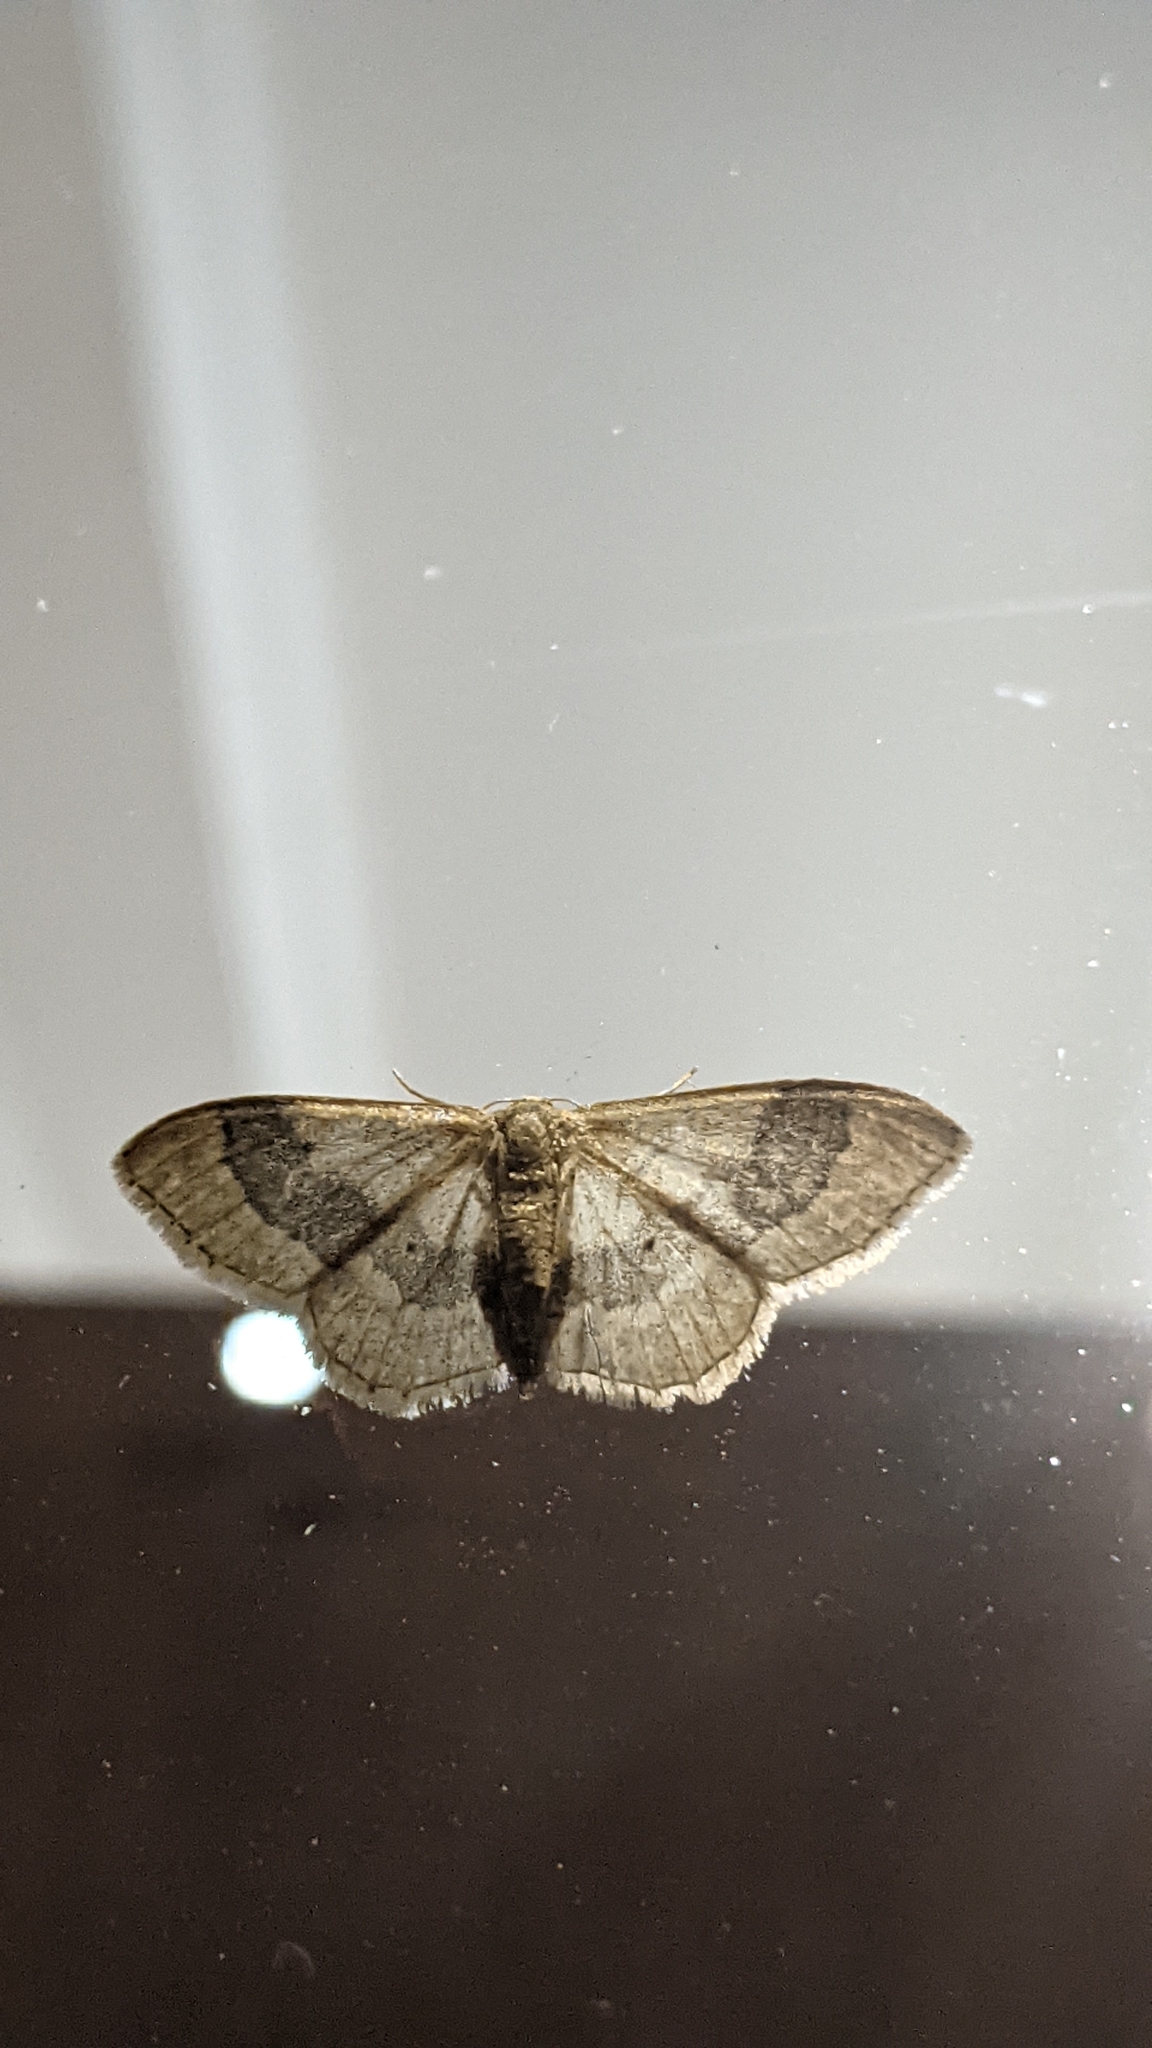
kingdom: Animalia
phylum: Arthropoda
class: Insecta
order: Lepidoptera
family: Geometridae
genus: Idaea
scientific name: Idaea aversata
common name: Riband wave
